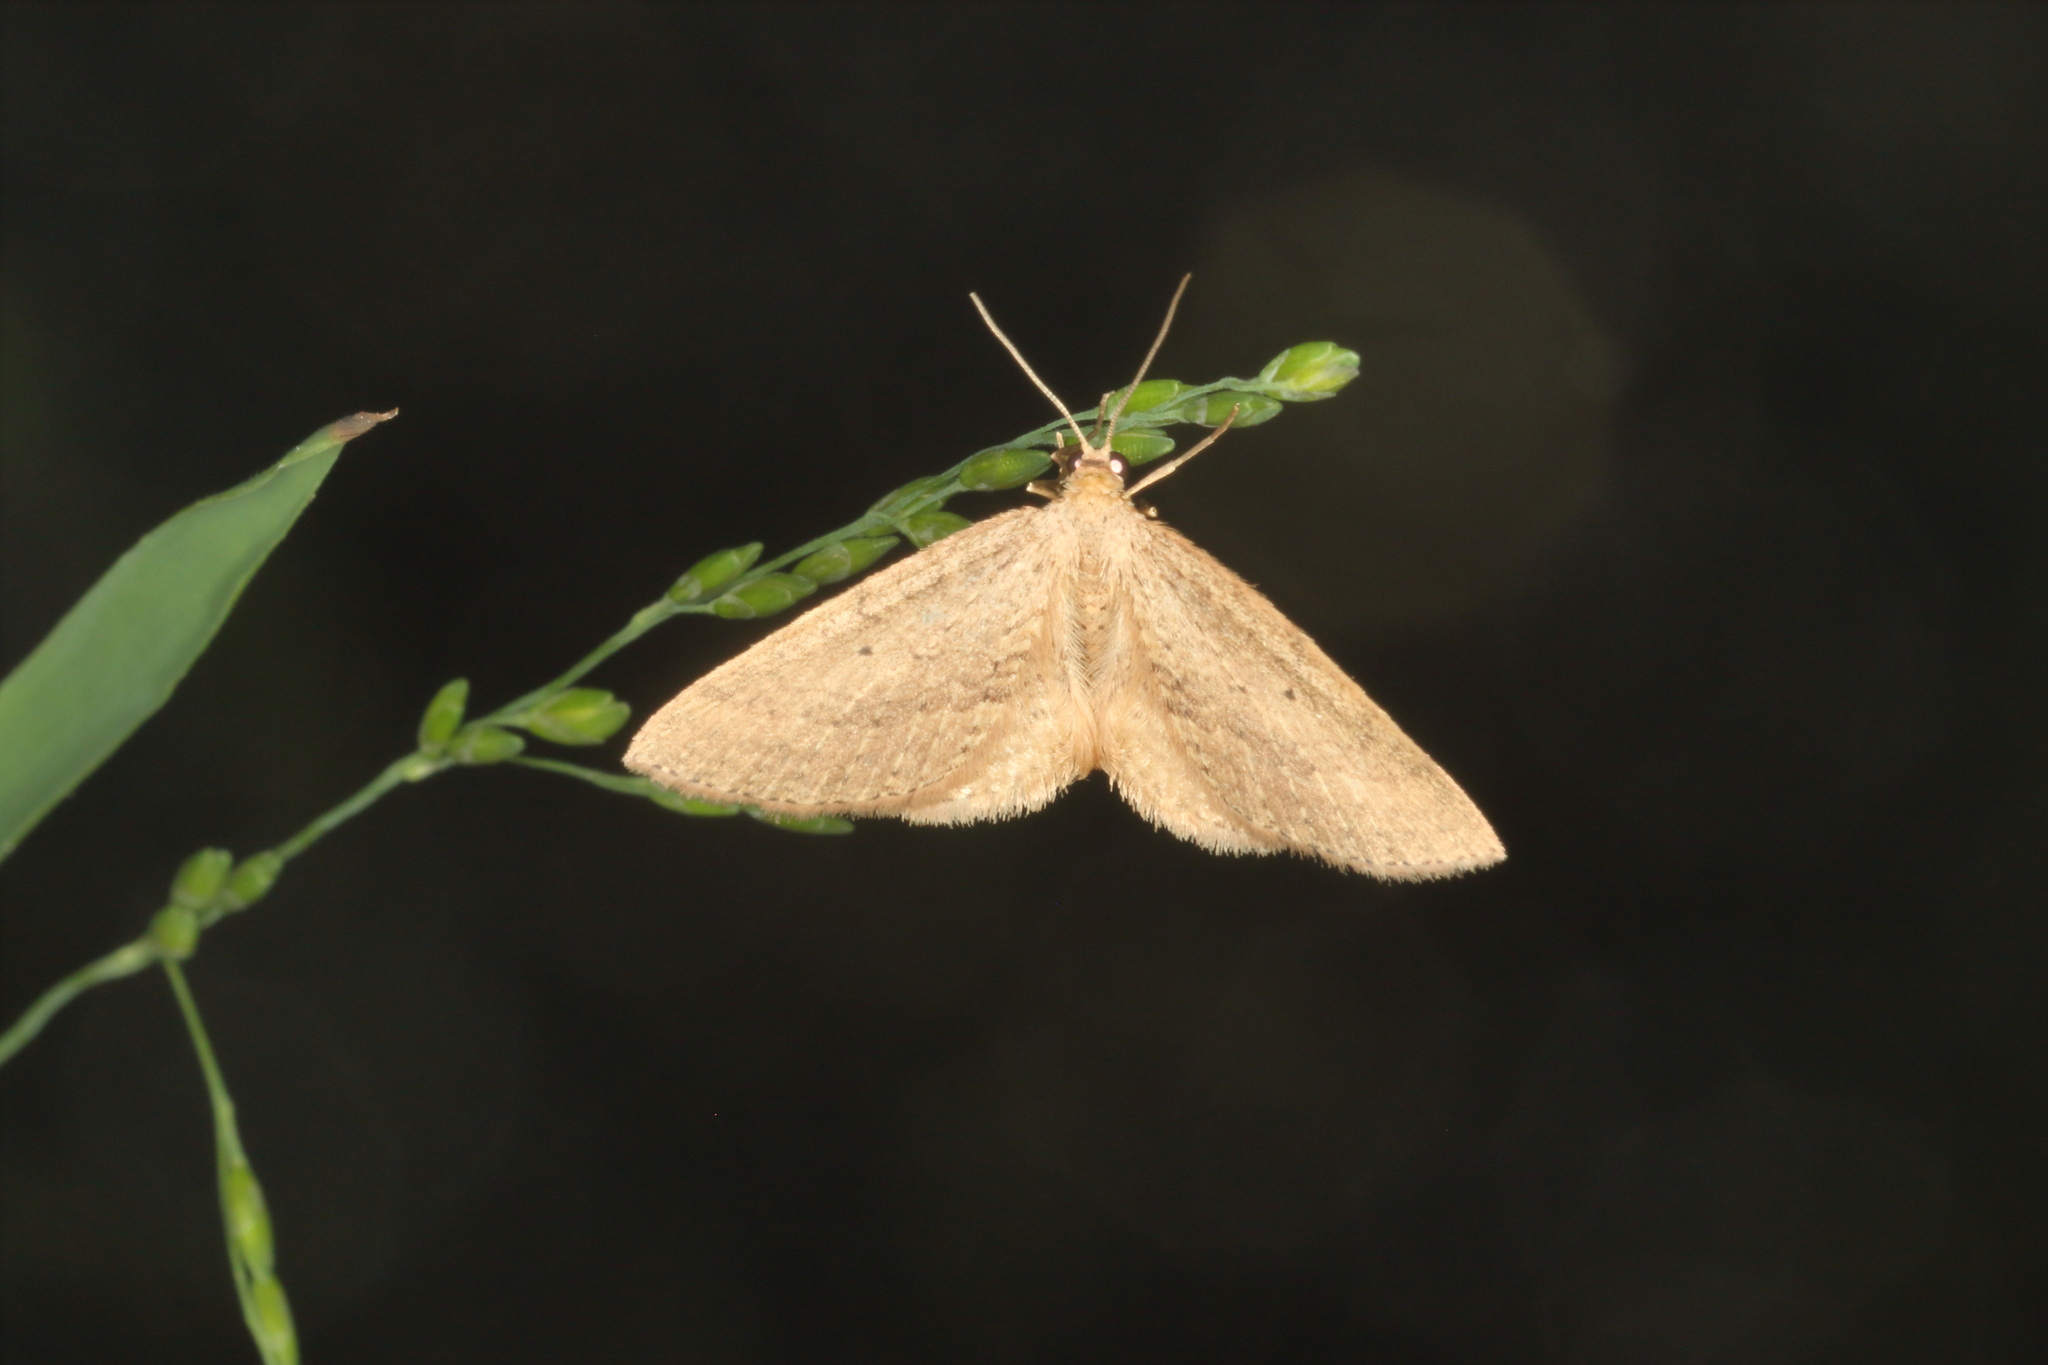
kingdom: Animalia
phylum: Arthropoda
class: Insecta
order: Lepidoptera
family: Geometridae
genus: Poecilasthena
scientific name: Poecilasthena schistaria
